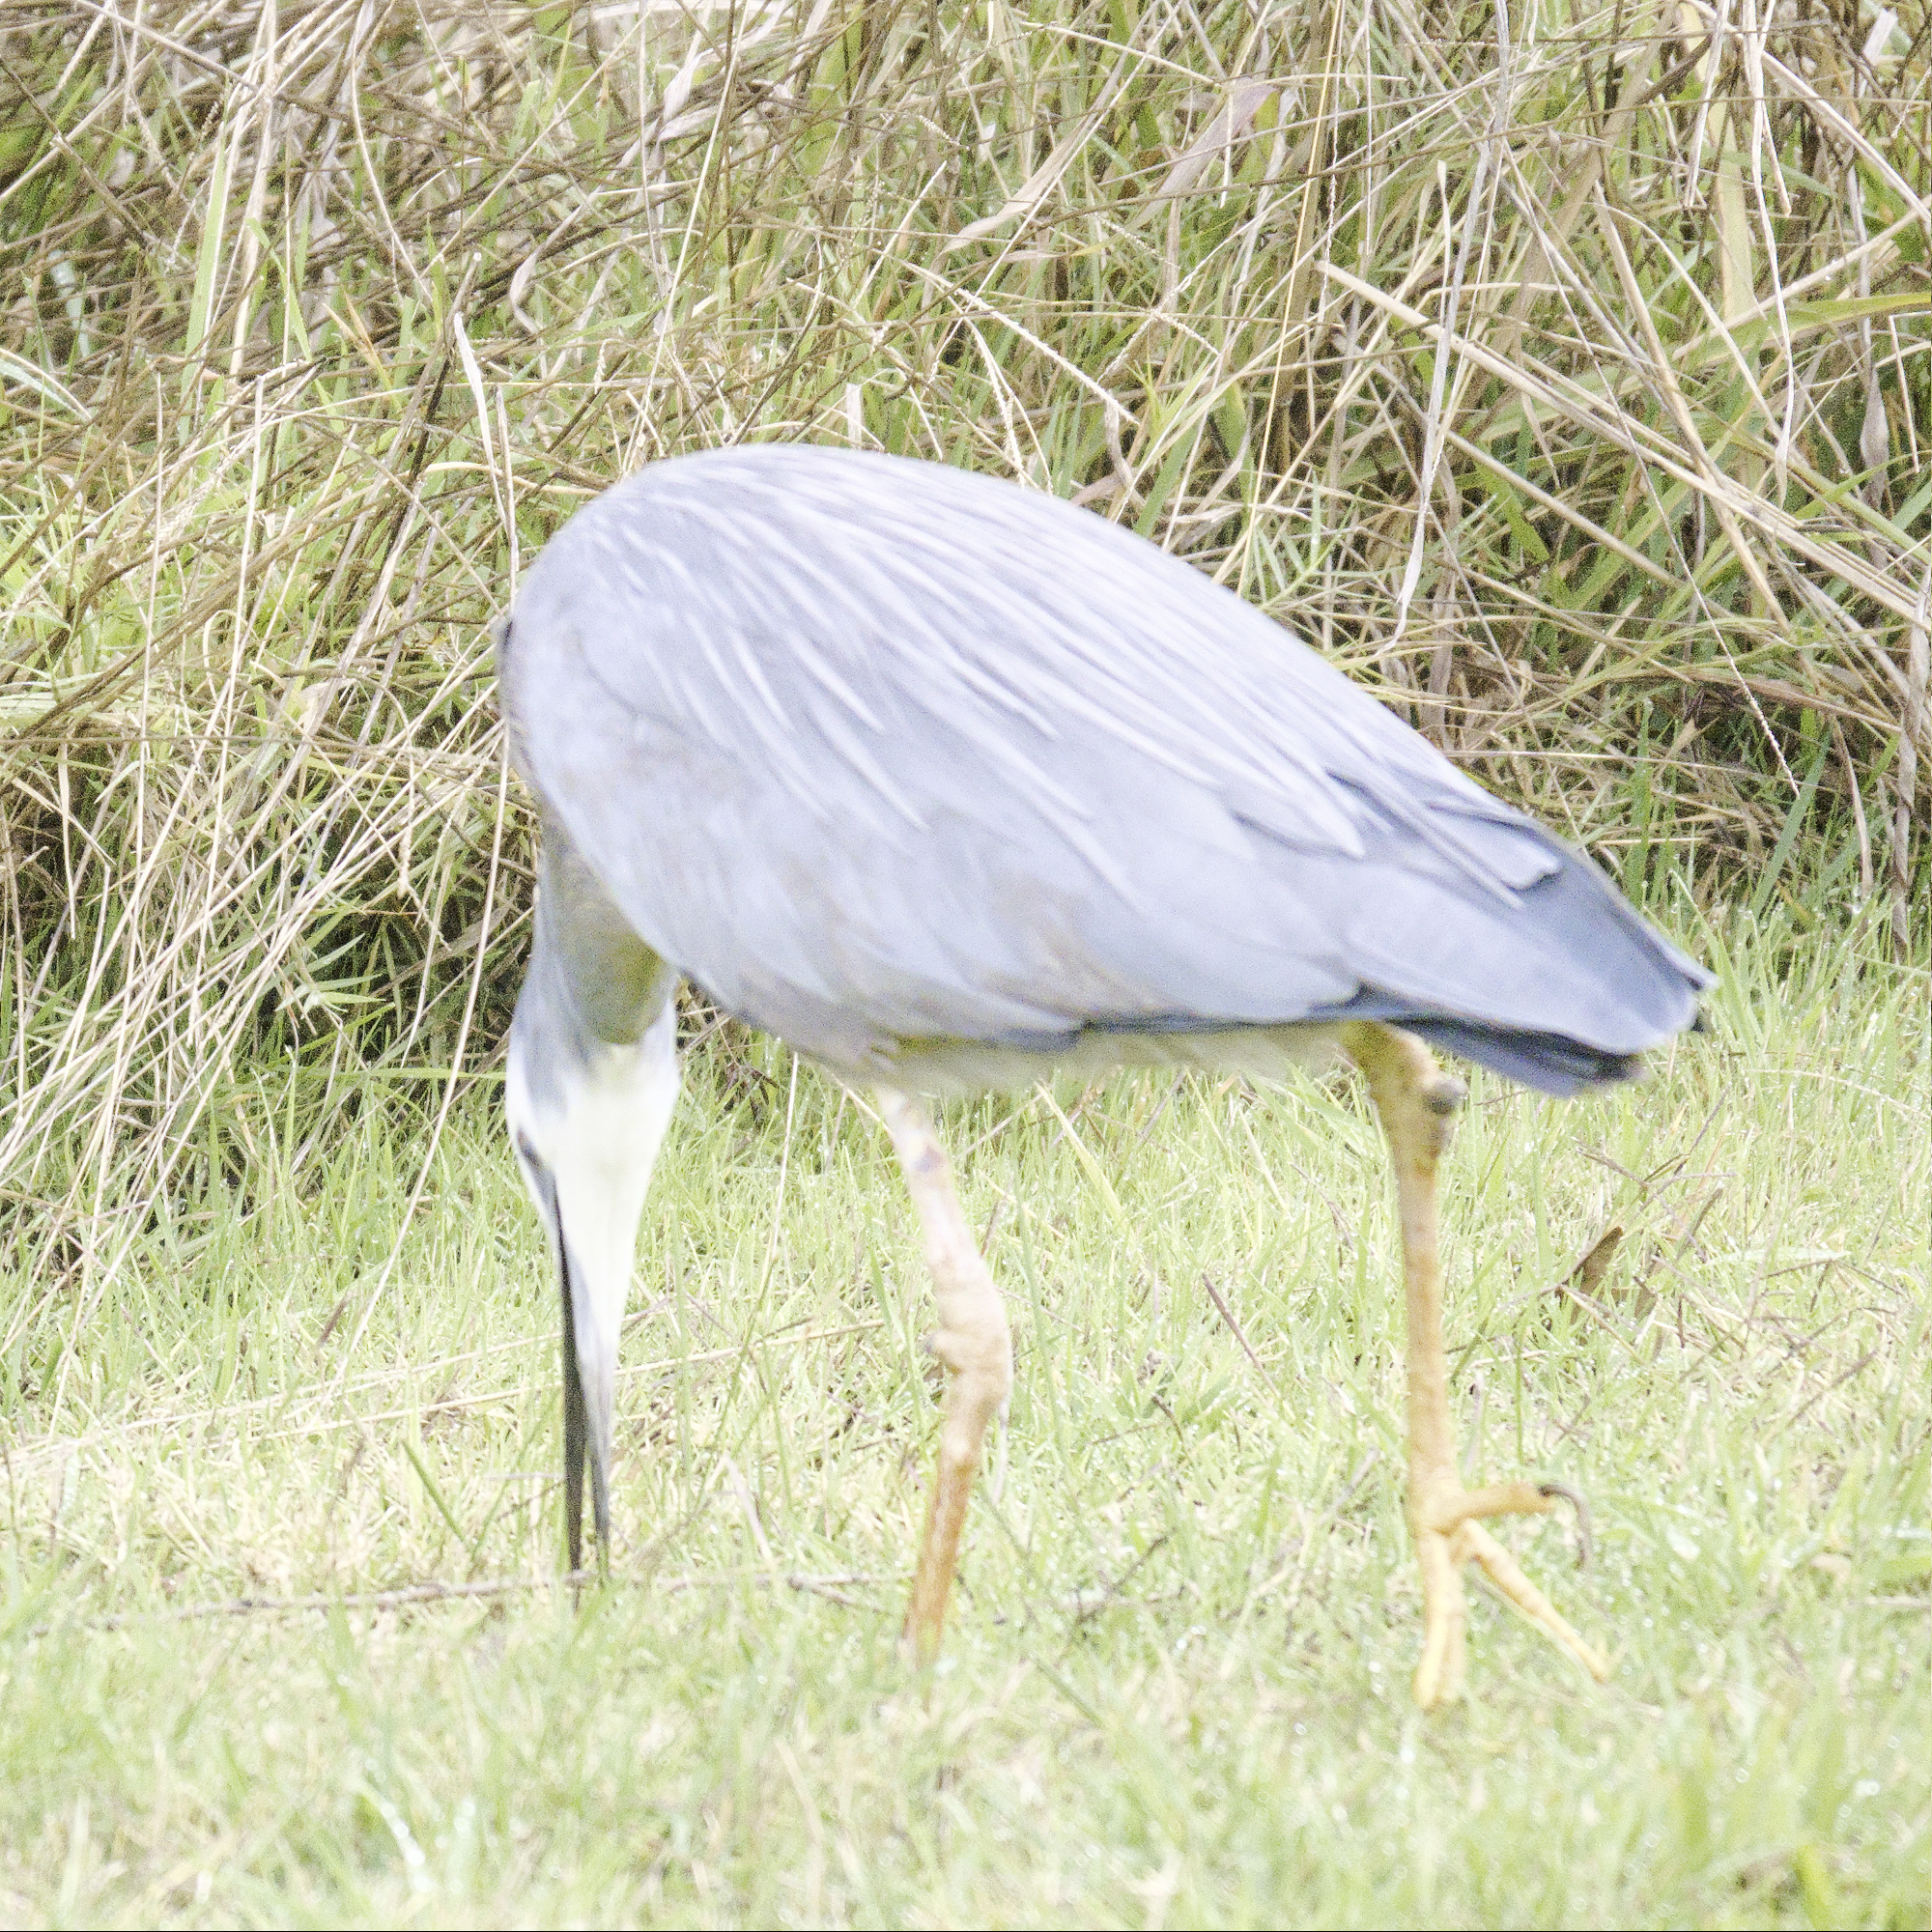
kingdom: Animalia
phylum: Chordata
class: Aves
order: Pelecaniformes
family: Ardeidae
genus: Egretta
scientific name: Egretta novaehollandiae
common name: White-faced heron
